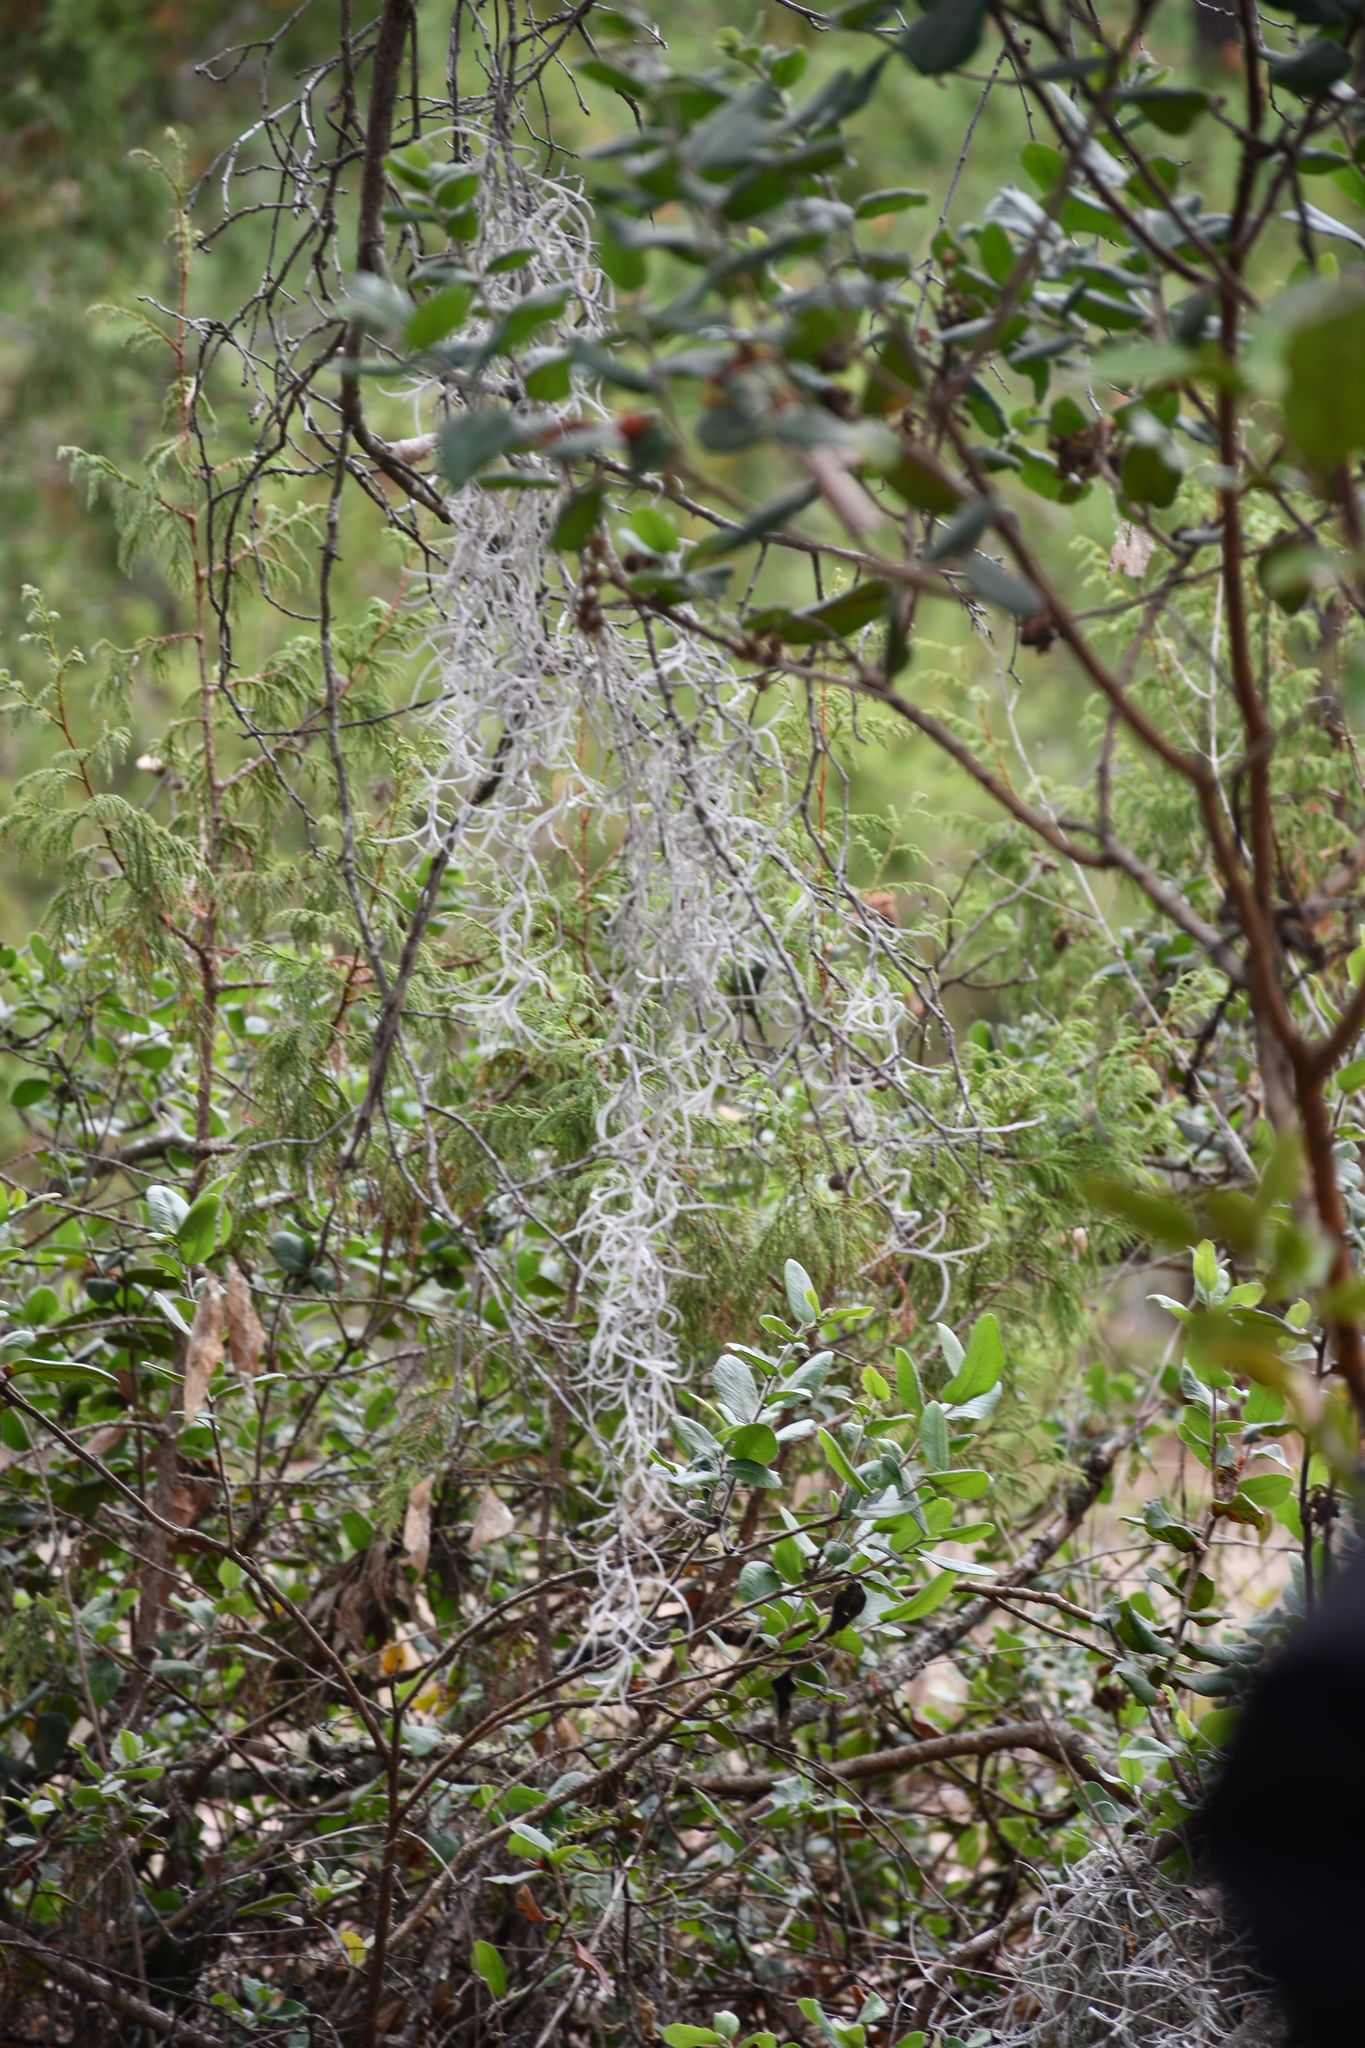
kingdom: Plantae
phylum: Tracheophyta
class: Liliopsida
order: Poales
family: Bromeliaceae
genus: Tillandsia
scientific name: Tillandsia usneoides
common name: Spanish moss
